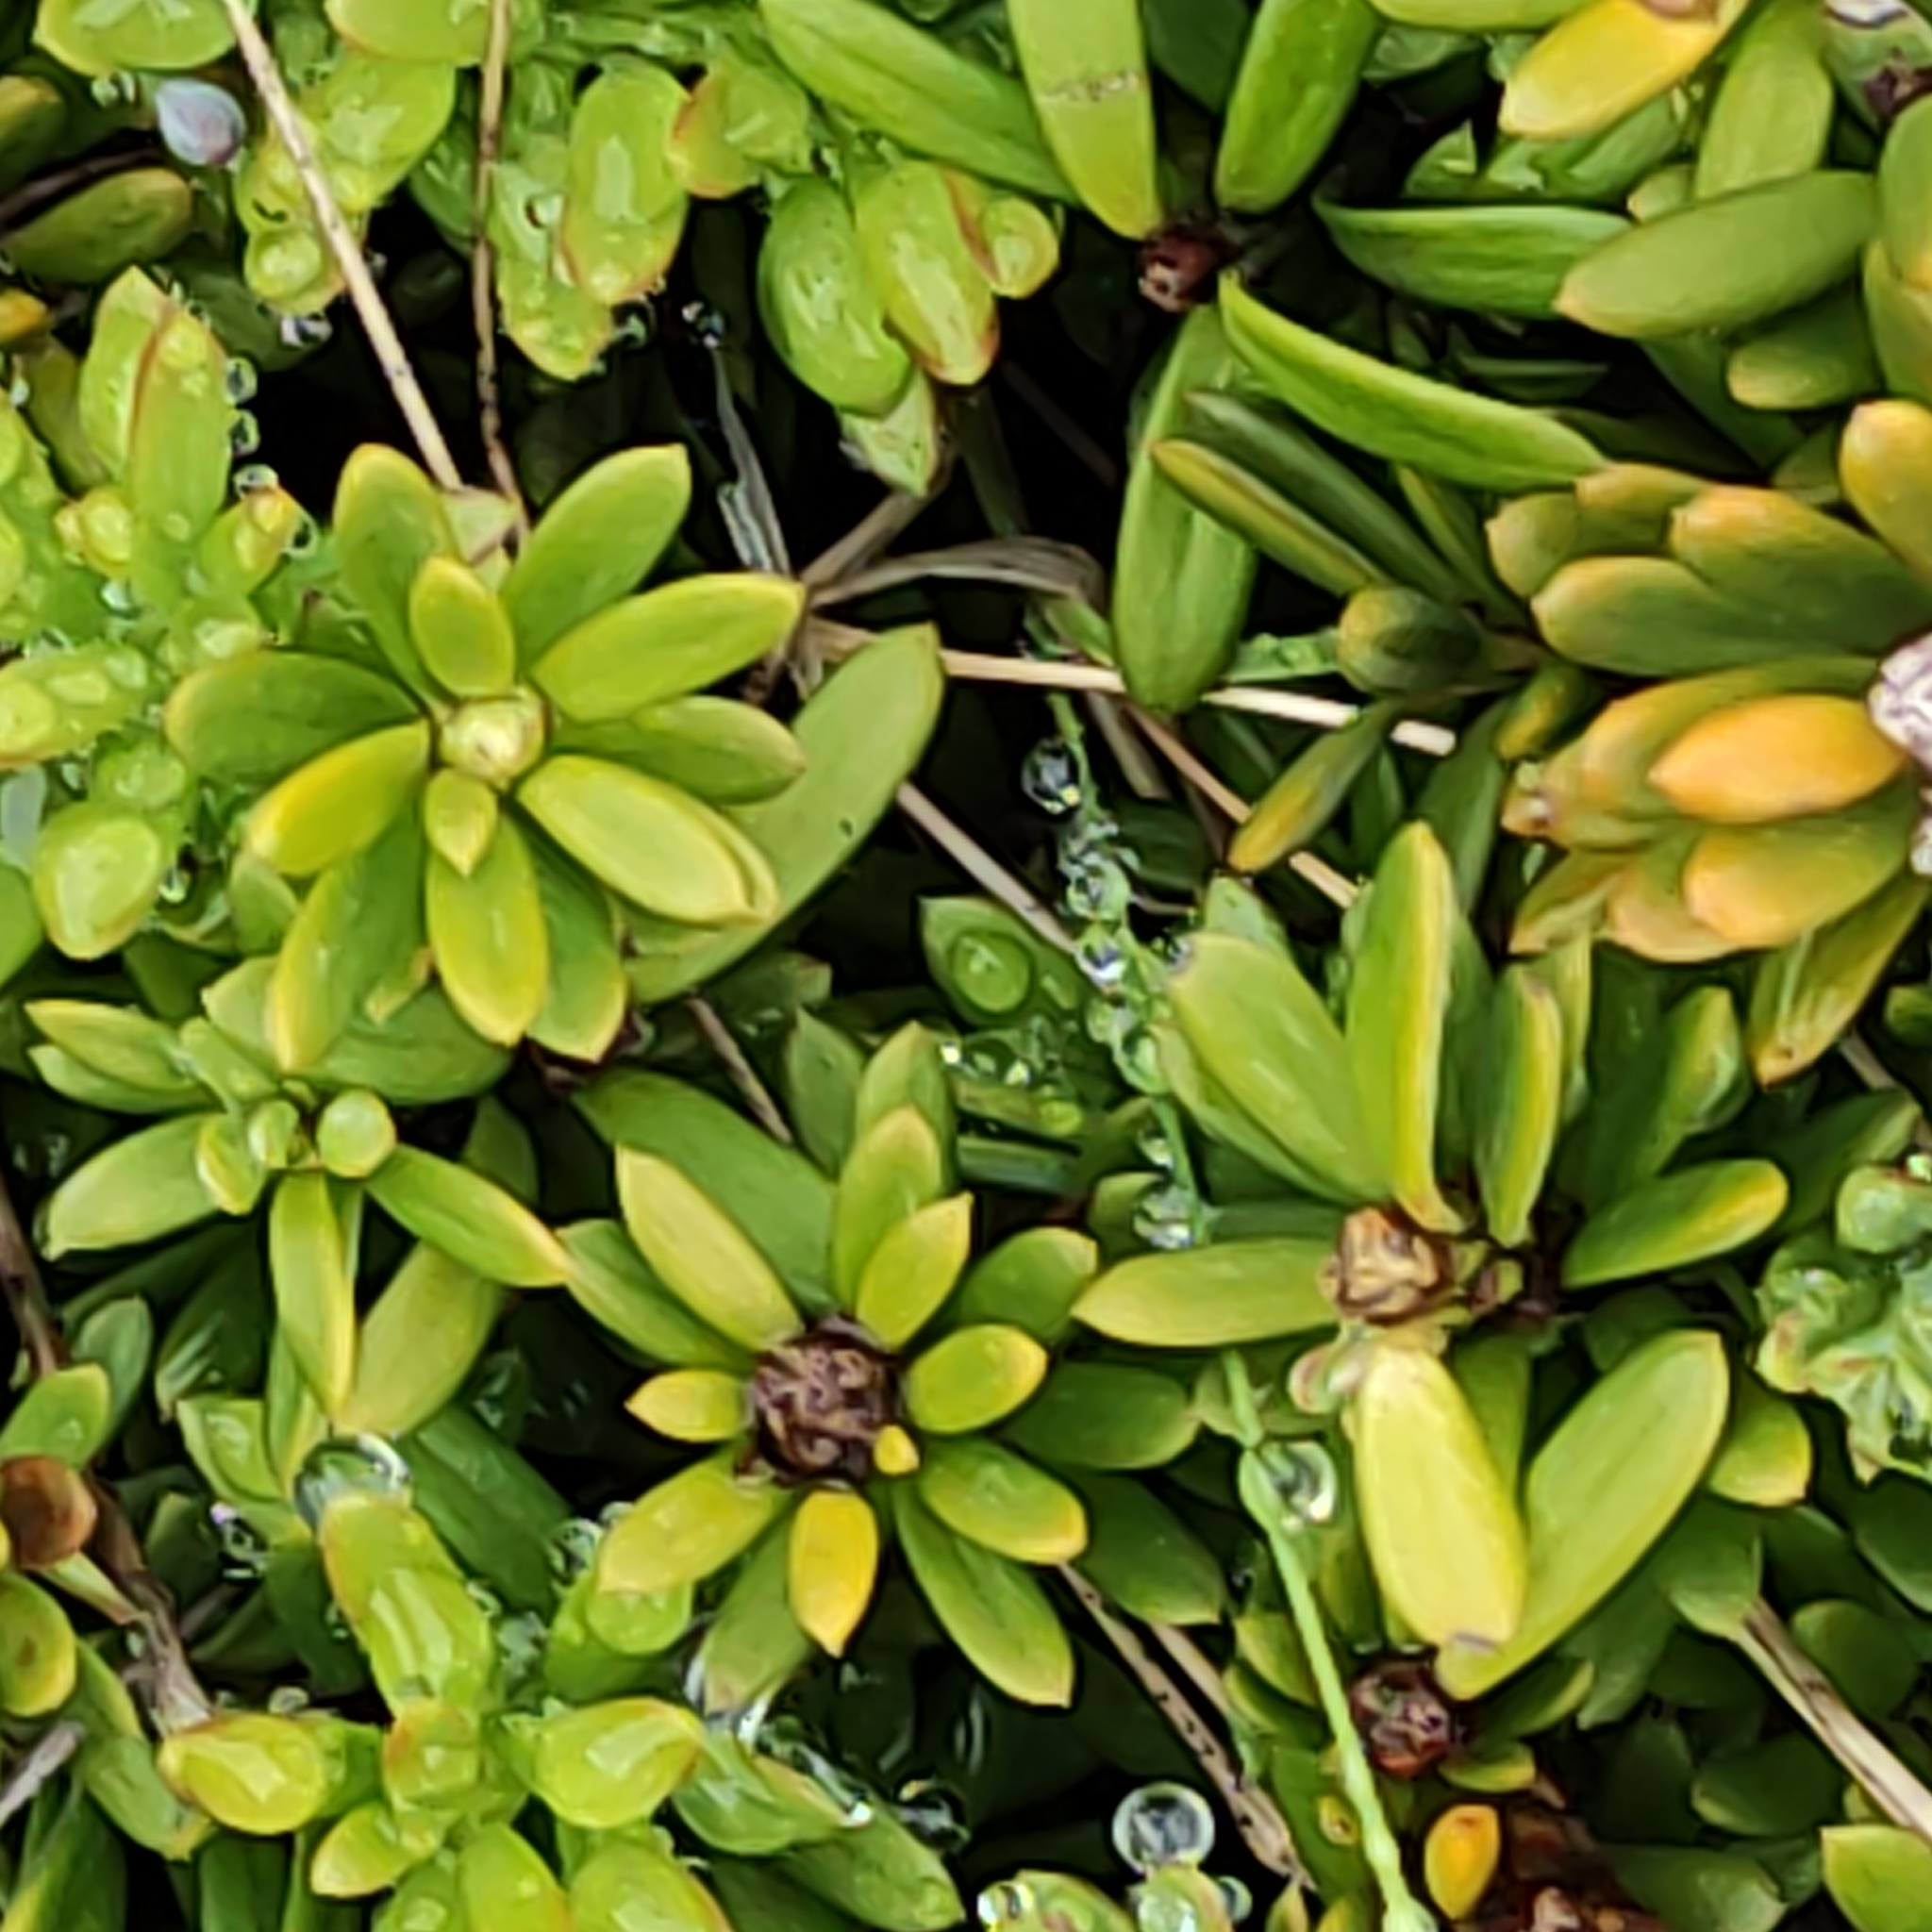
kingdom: Plantae
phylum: Tracheophyta
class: Pinopsida
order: Pinales
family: Podocarpaceae
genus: Podocarpus
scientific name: Podocarpus nivalis
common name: Alpine totara
